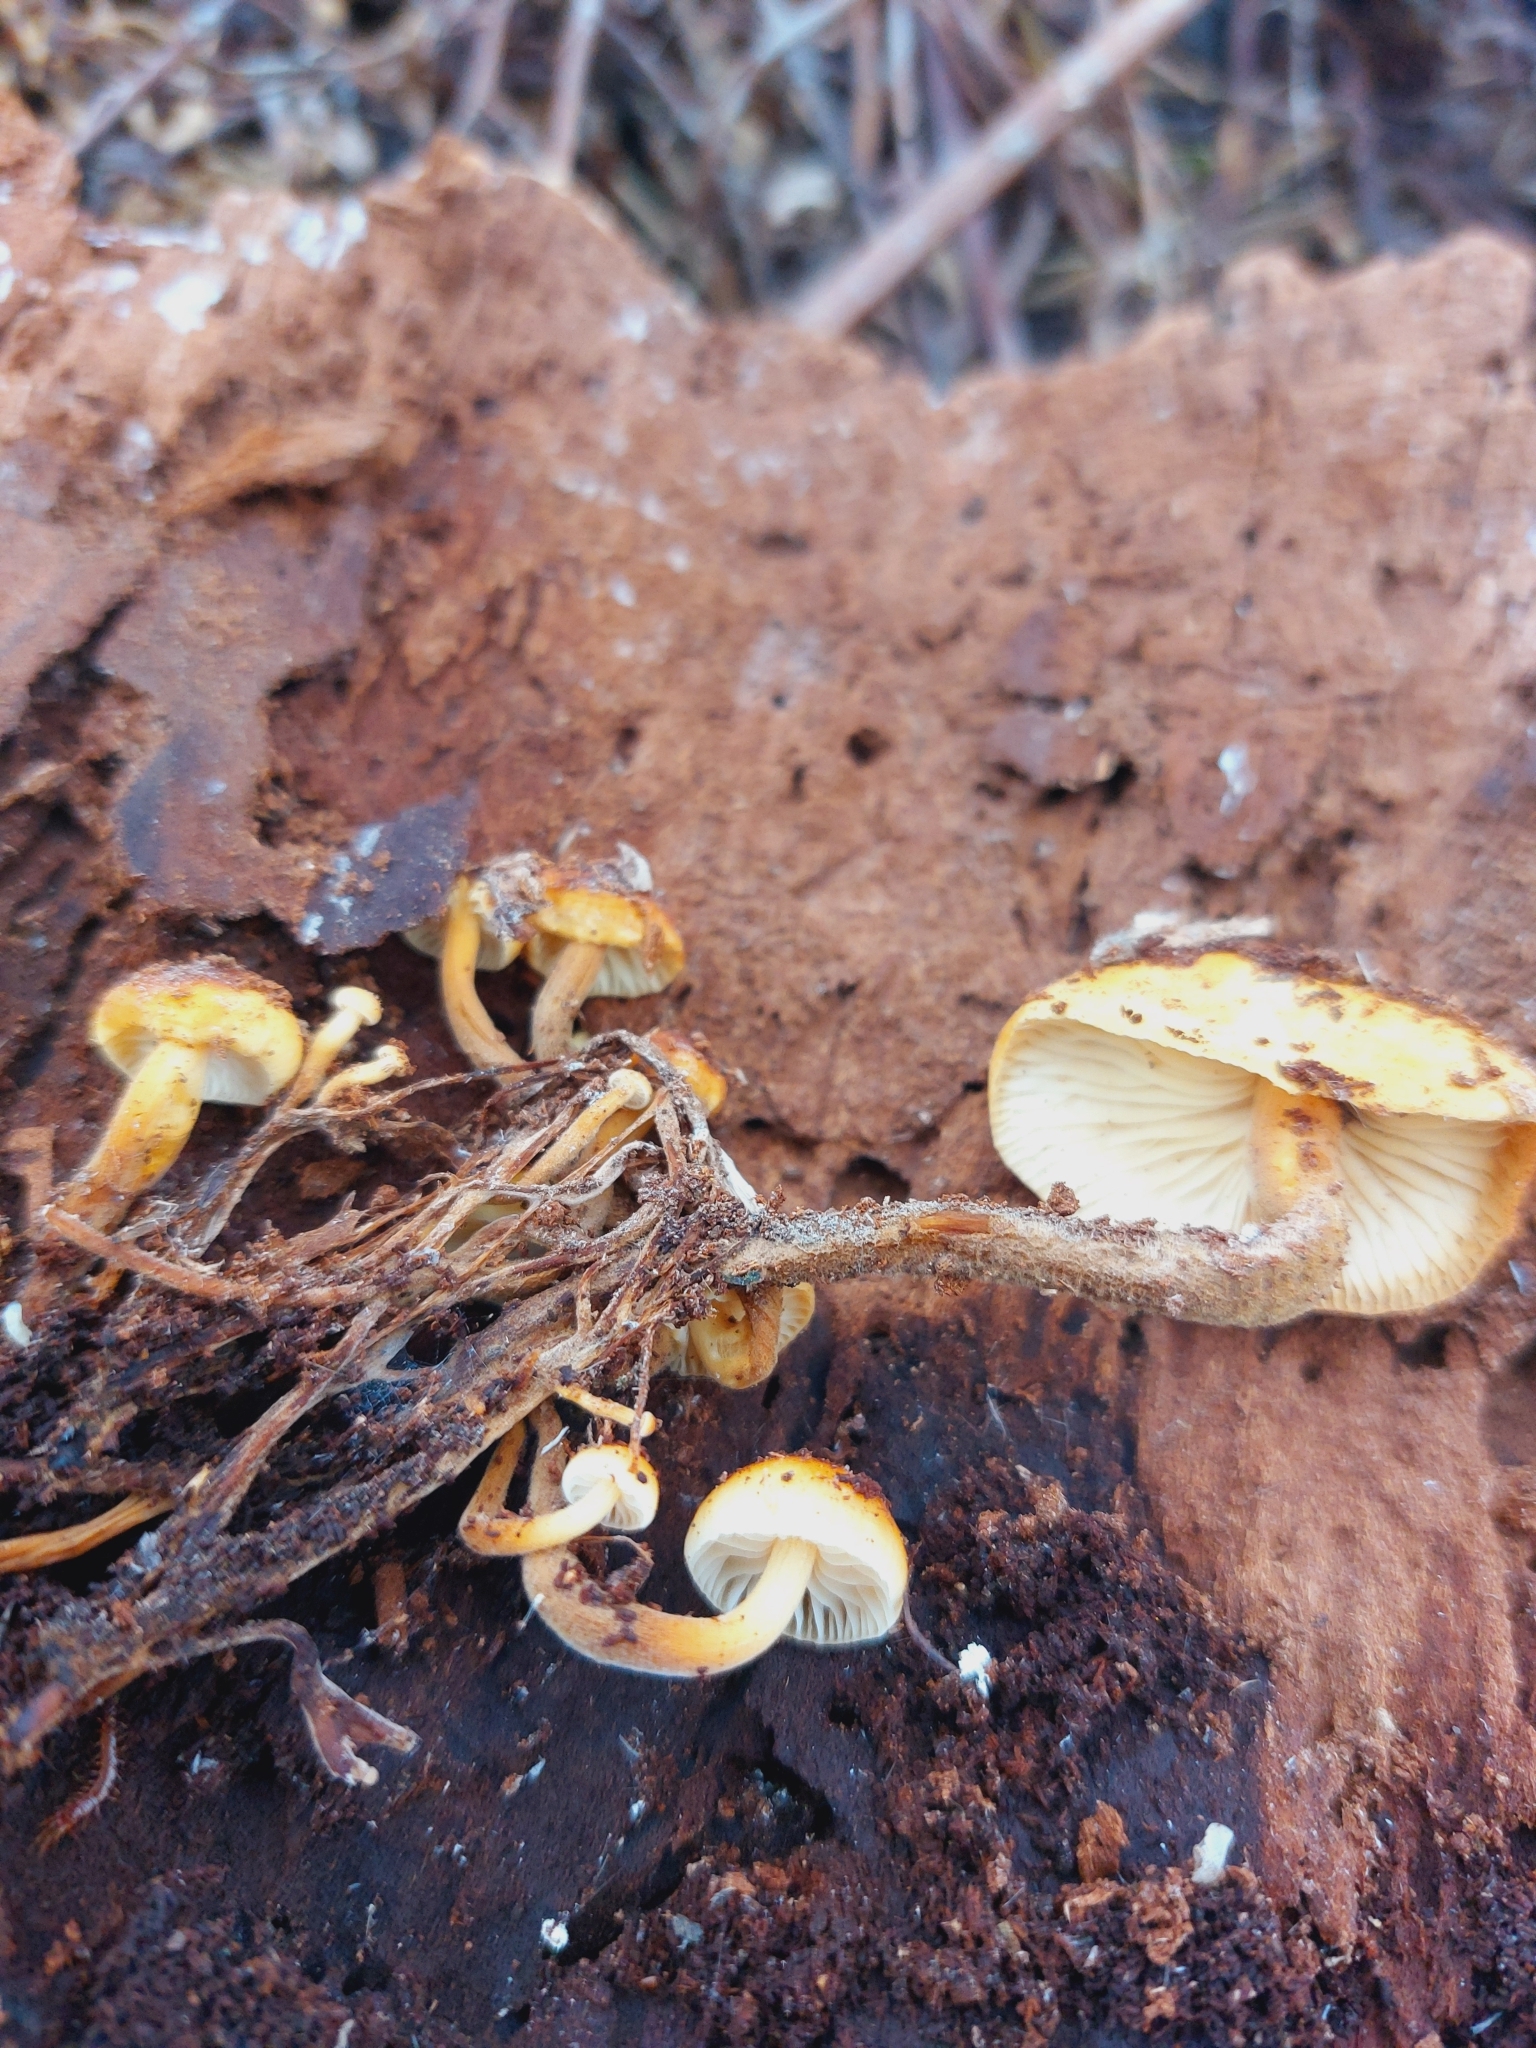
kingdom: Fungi
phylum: Basidiomycota
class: Agaricomycetes
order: Agaricales
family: Physalacriaceae
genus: Flammulina
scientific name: Flammulina velutipes
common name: Velvet shank
